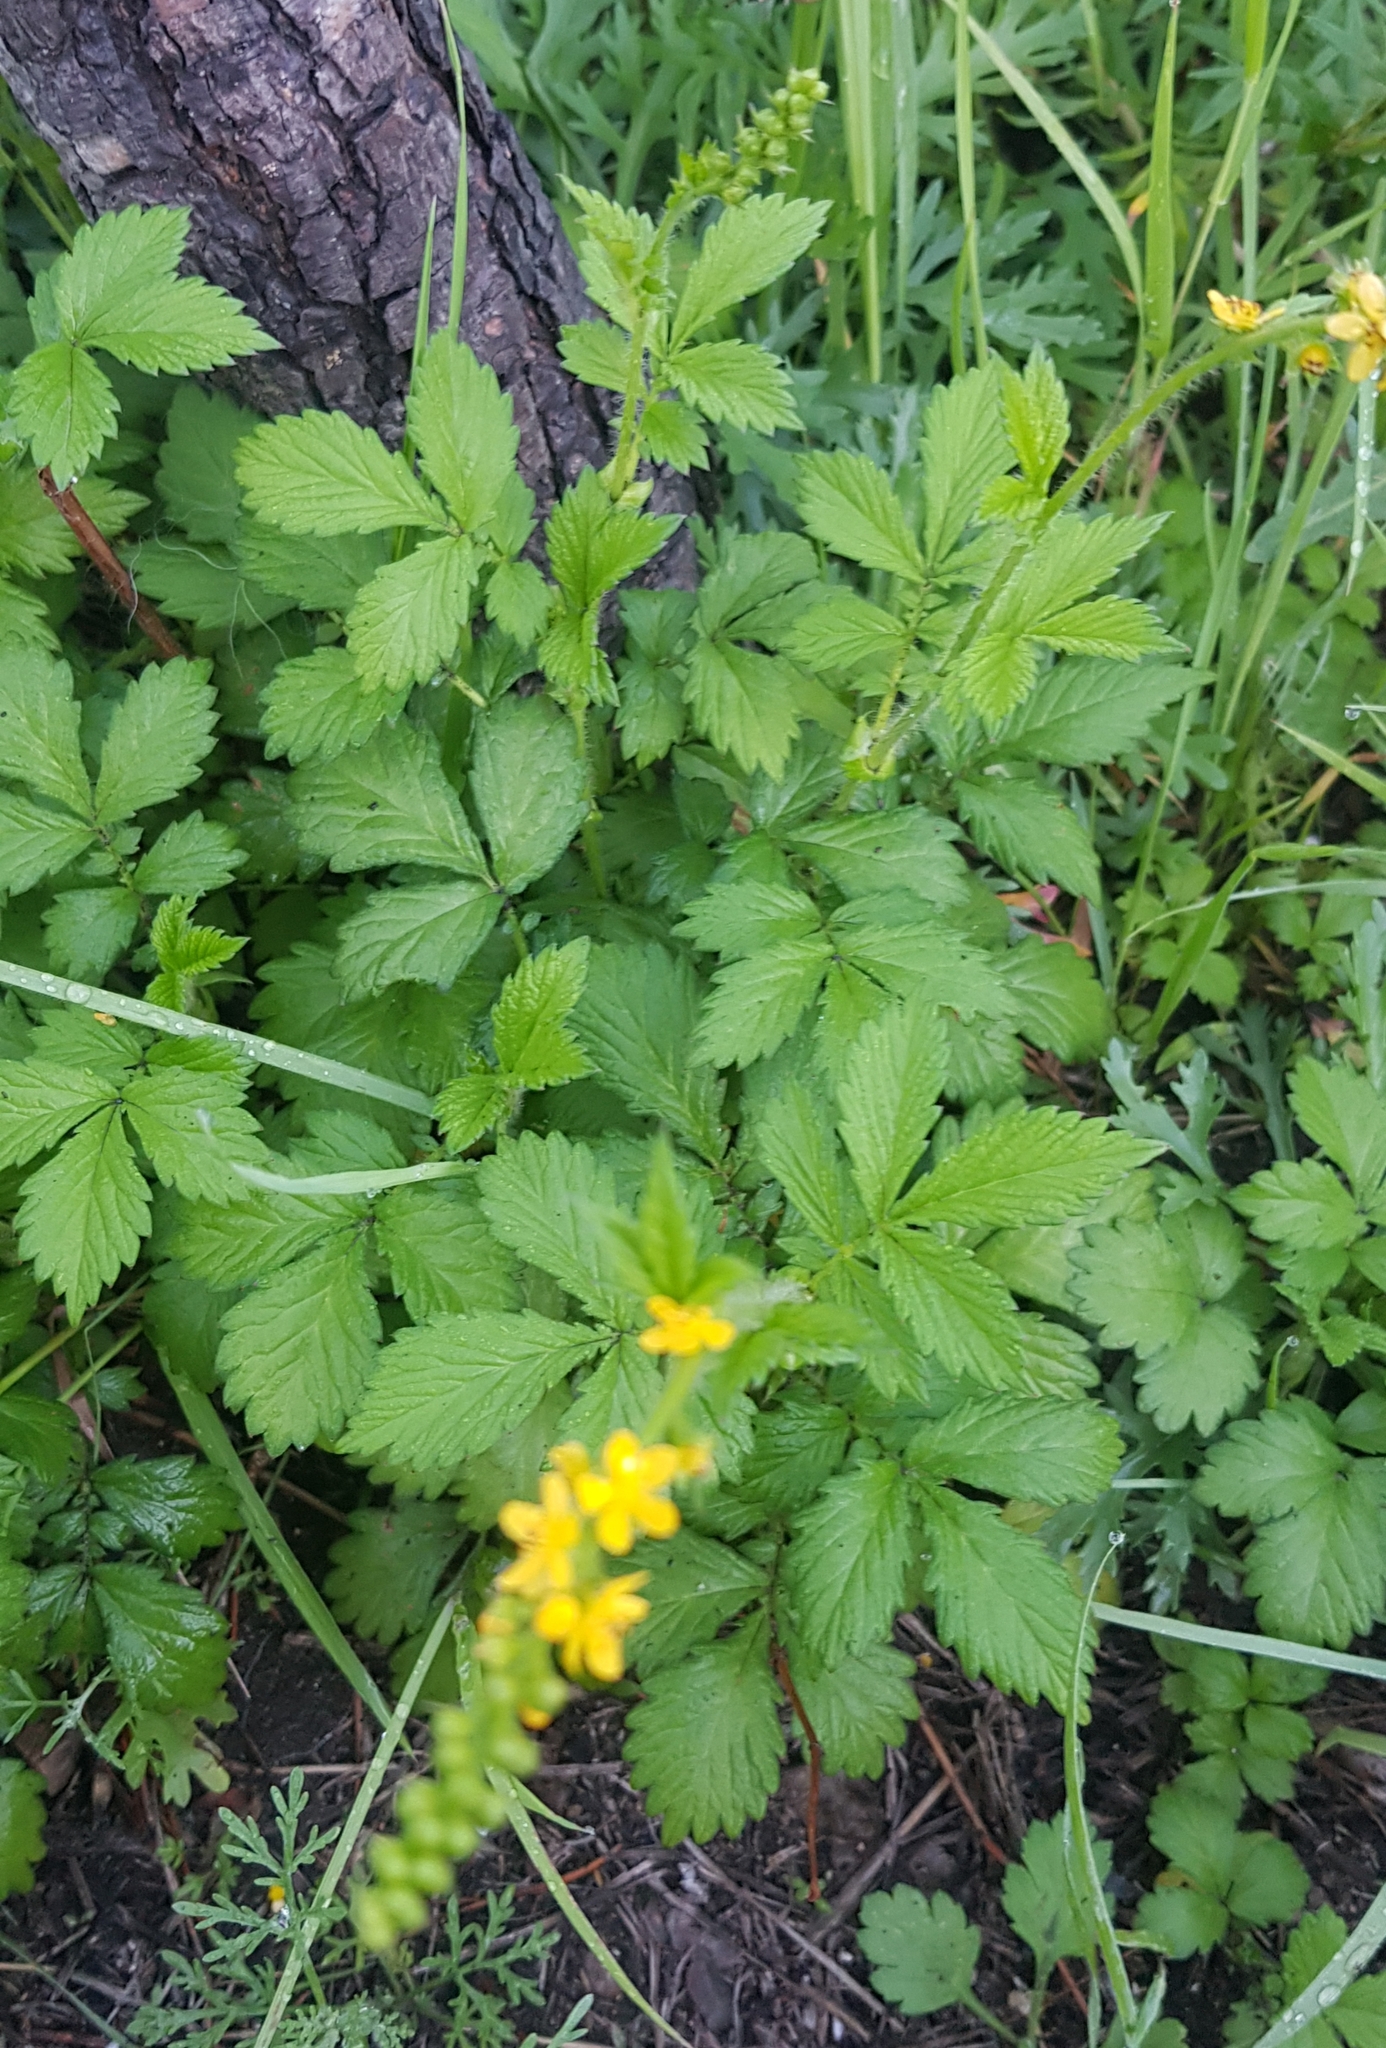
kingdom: Plantae
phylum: Tracheophyta
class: Magnoliopsida
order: Rosales
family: Rosaceae
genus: Agrimonia
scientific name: Agrimonia pilosa
